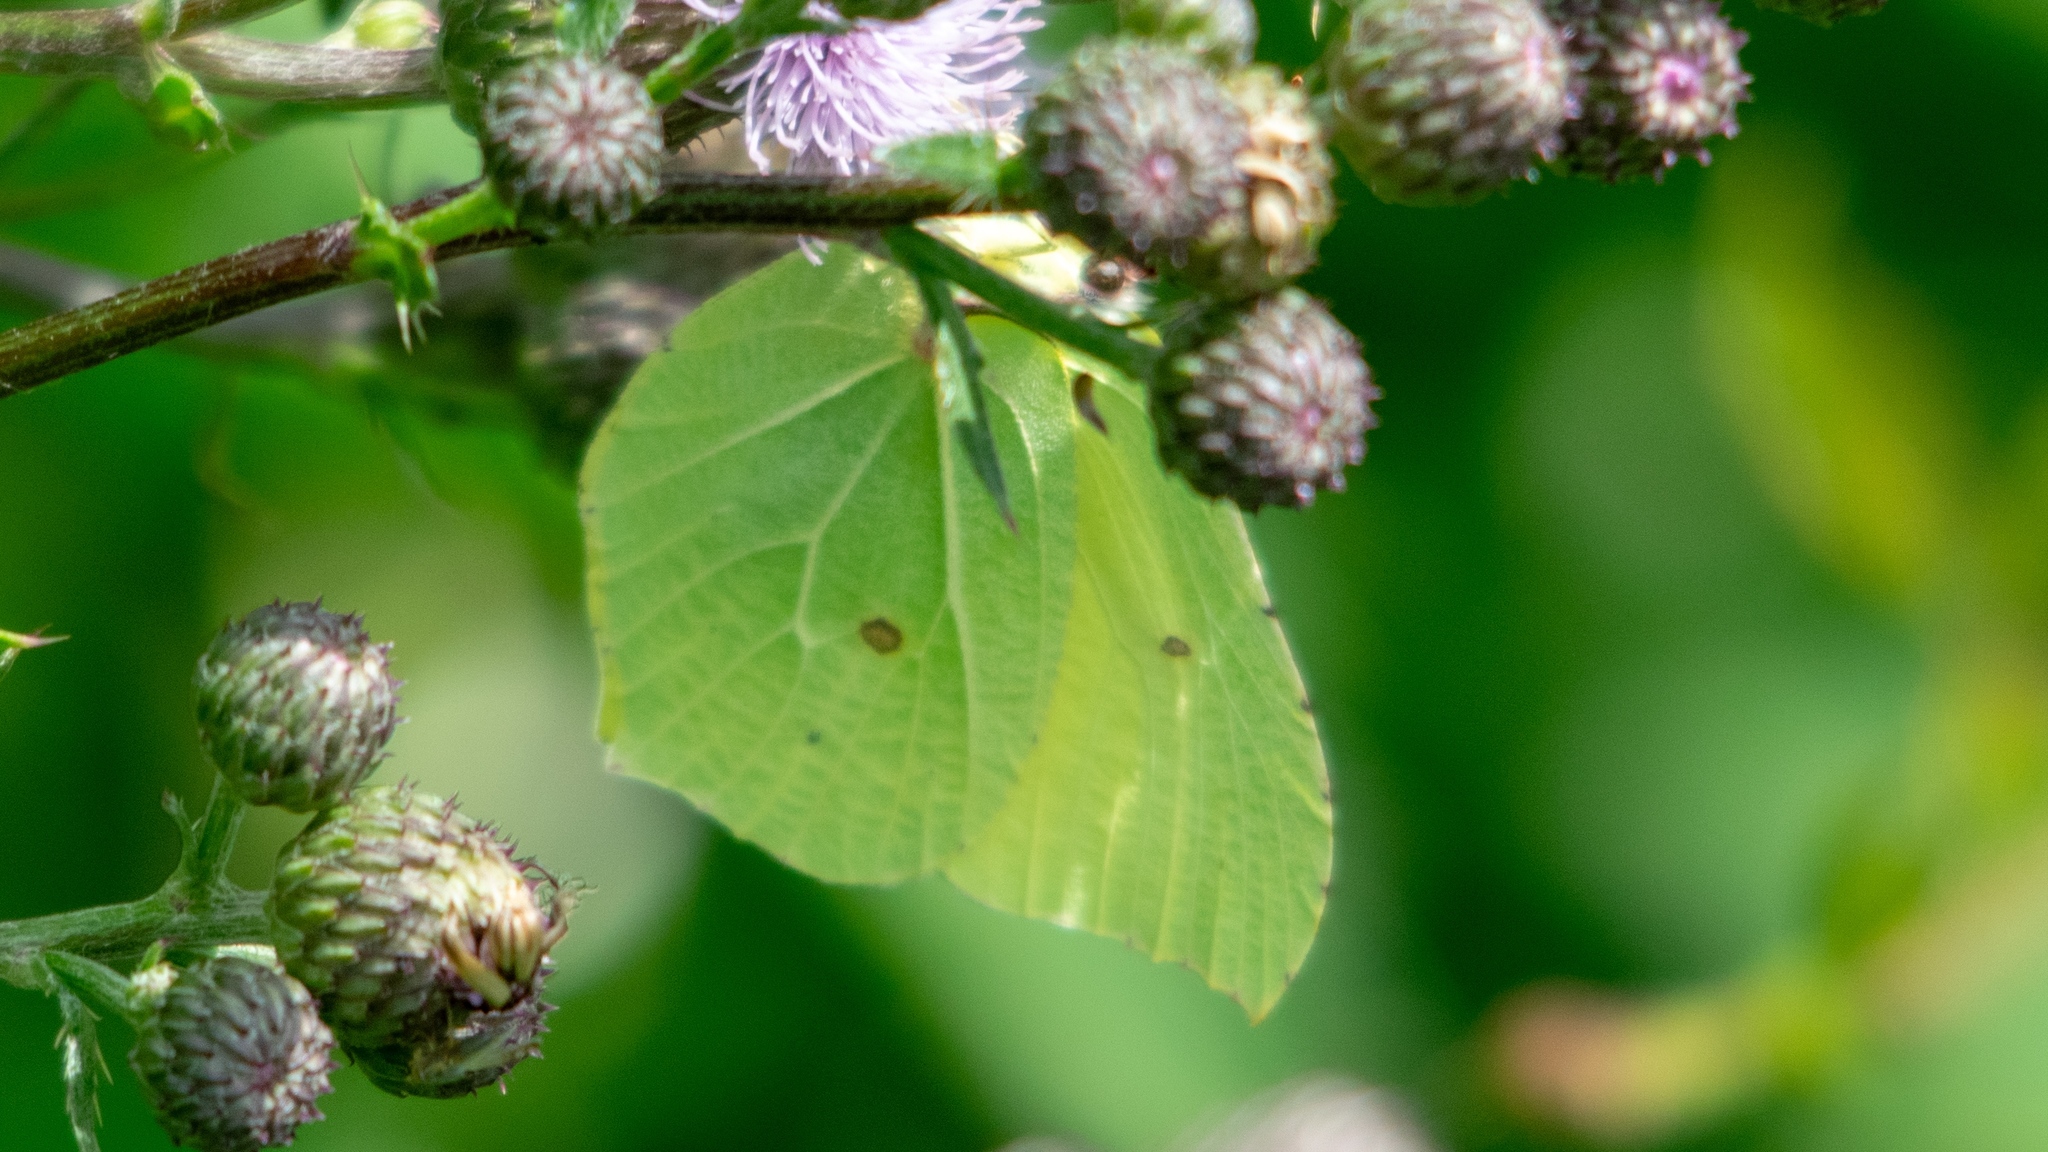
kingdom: Animalia
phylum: Arthropoda
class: Insecta
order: Lepidoptera
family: Pieridae
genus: Gonepteryx
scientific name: Gonepteryx rhamni
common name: Brimstone
